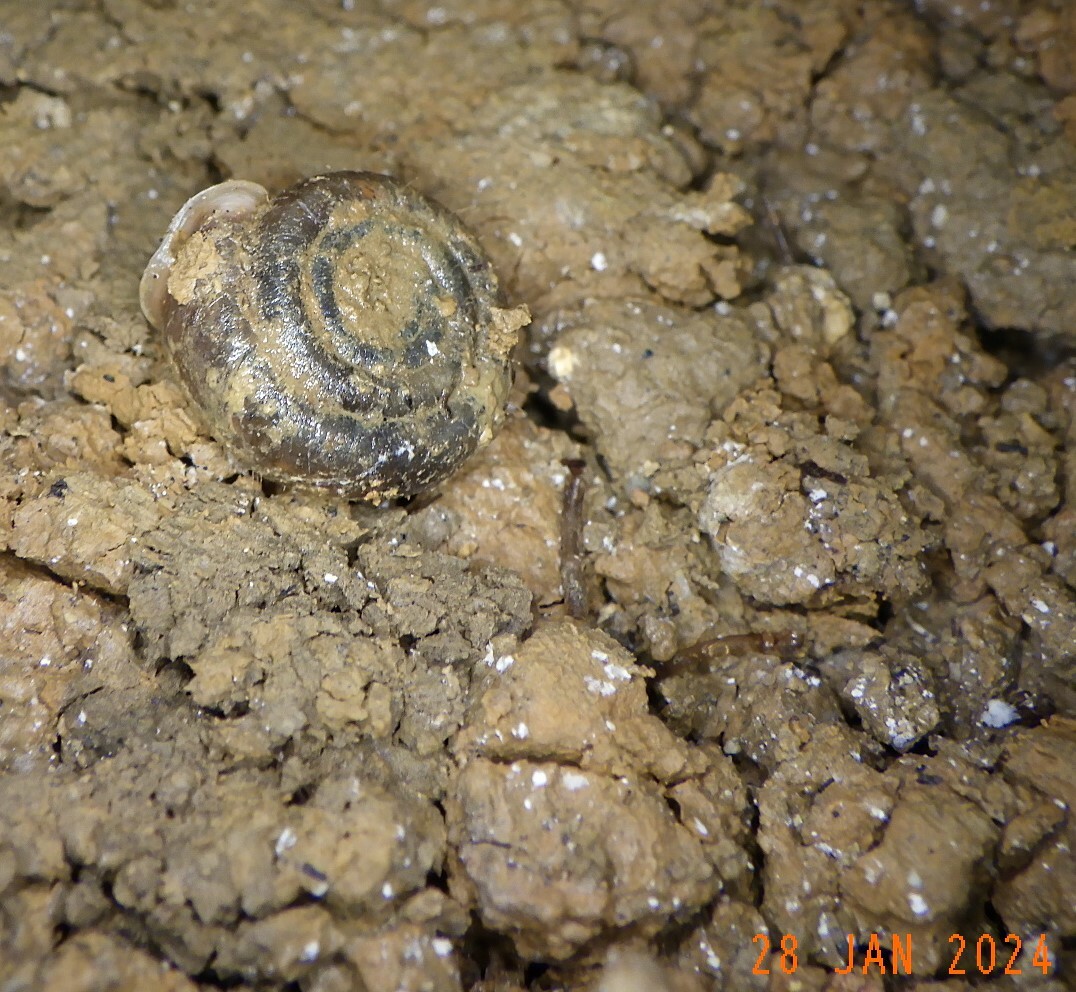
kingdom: Animalia
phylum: Mollusca
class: Gastropoda
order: Stylommatophora
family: Helicodontidae
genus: Helicodonta
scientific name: Helicodonta obvoluta
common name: Cheese snail
